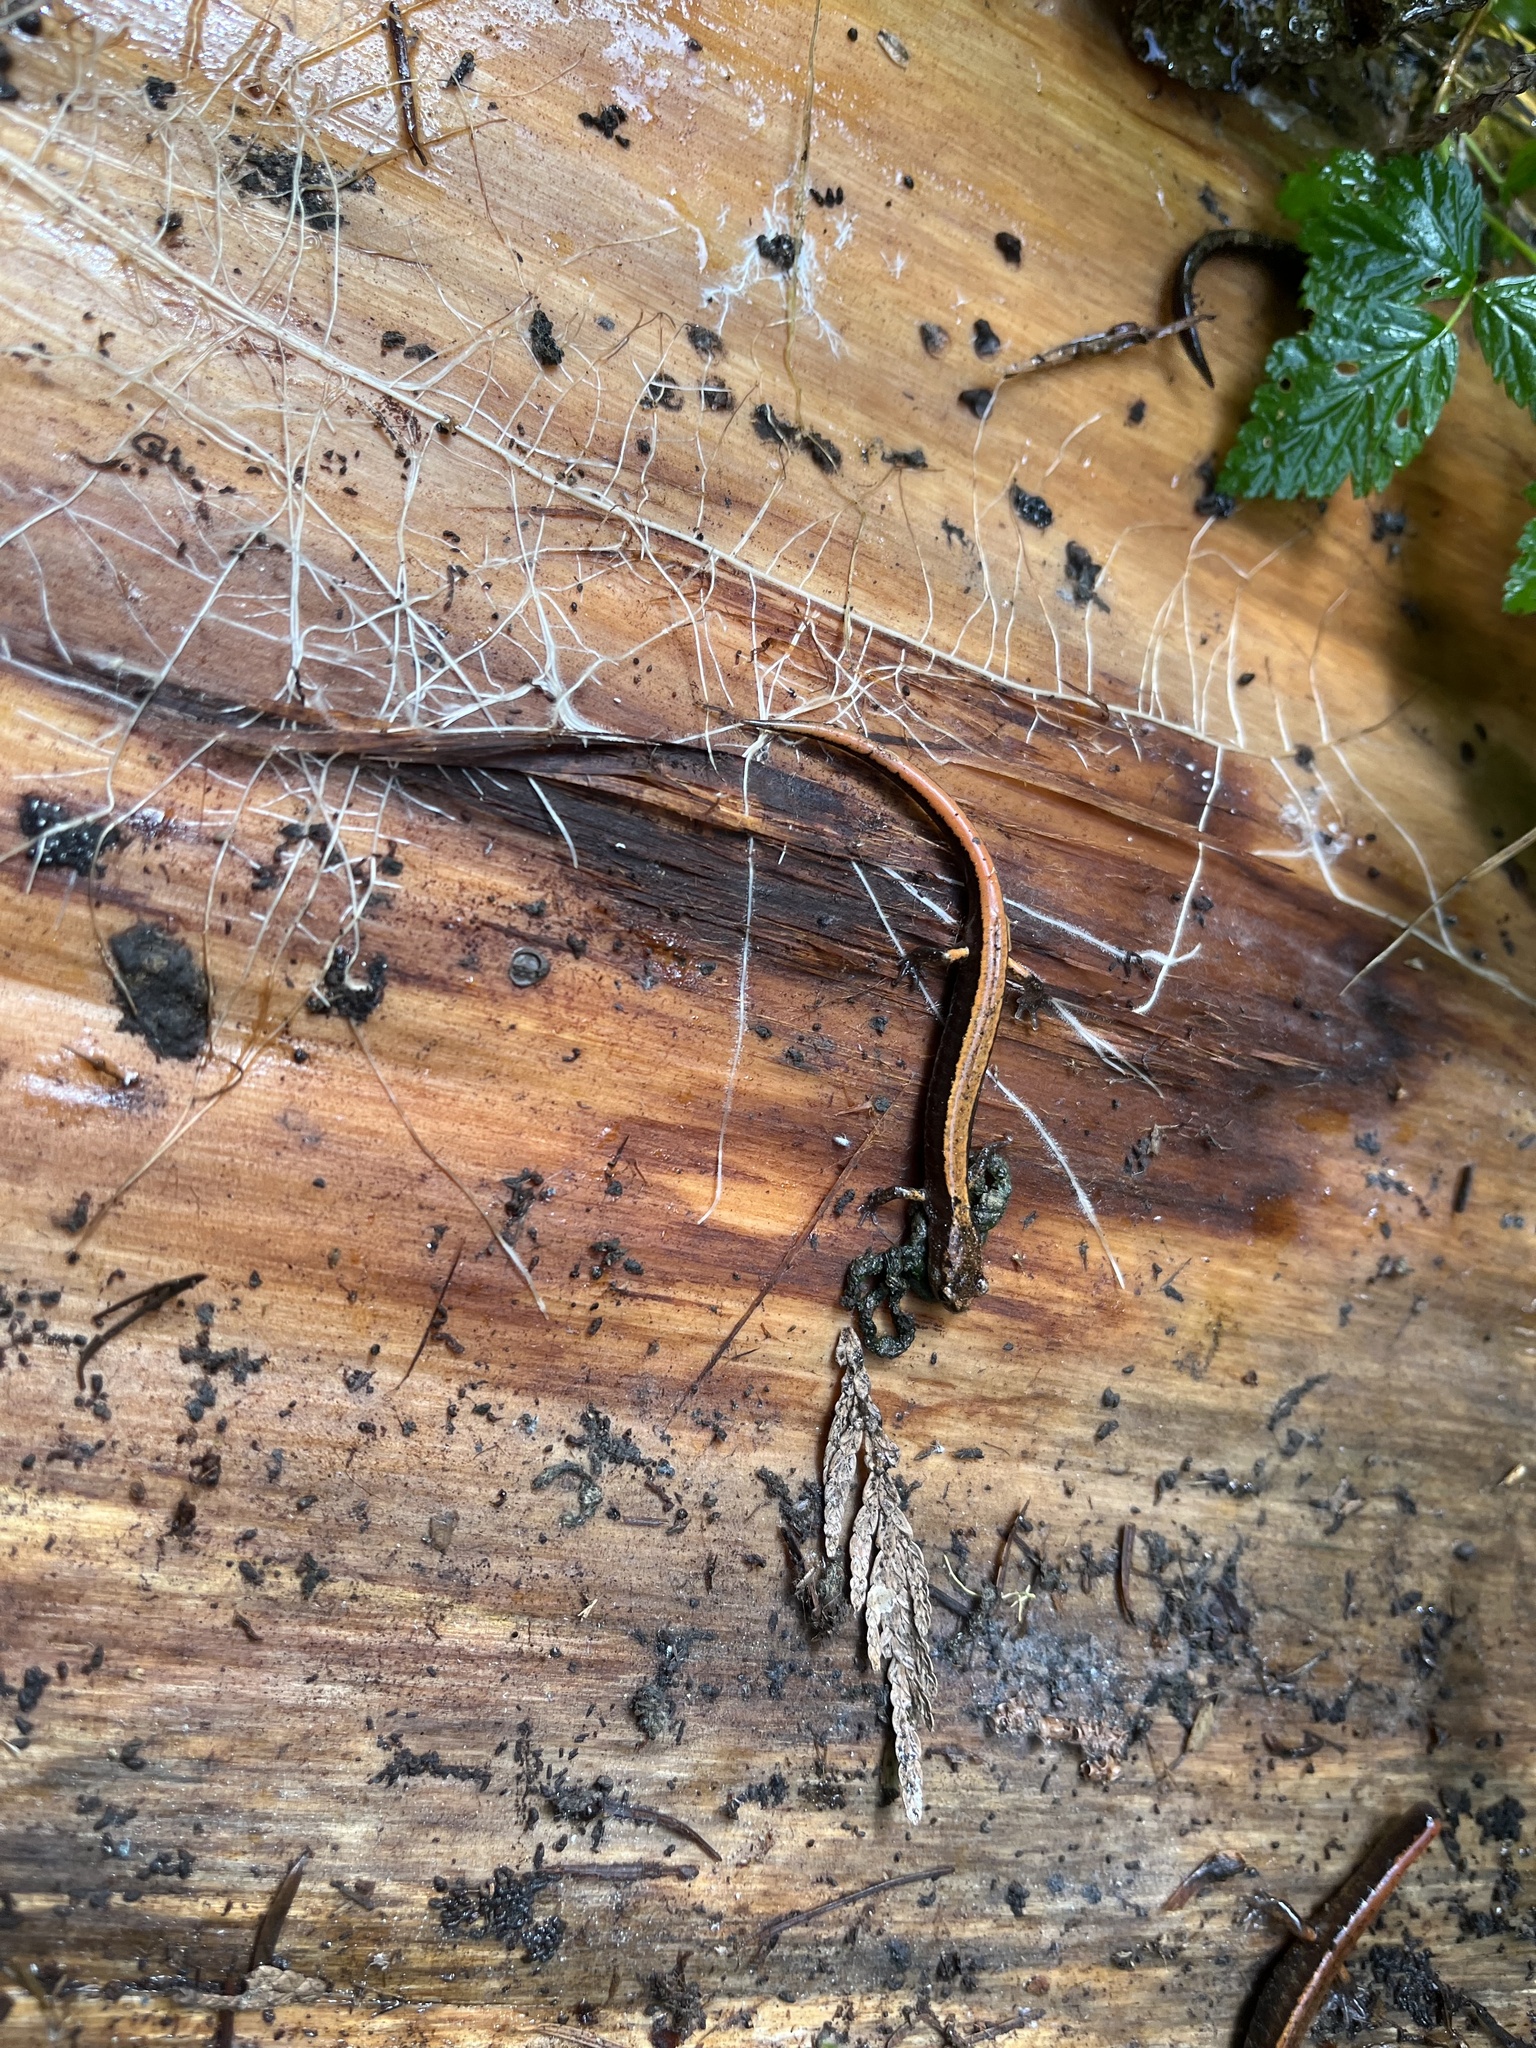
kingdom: Animalia
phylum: Chordata
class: Amphibia
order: Caudata
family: Plethodontidae
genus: Plethodon
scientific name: Plethodon vehiculum
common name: Western red-backed salamander
